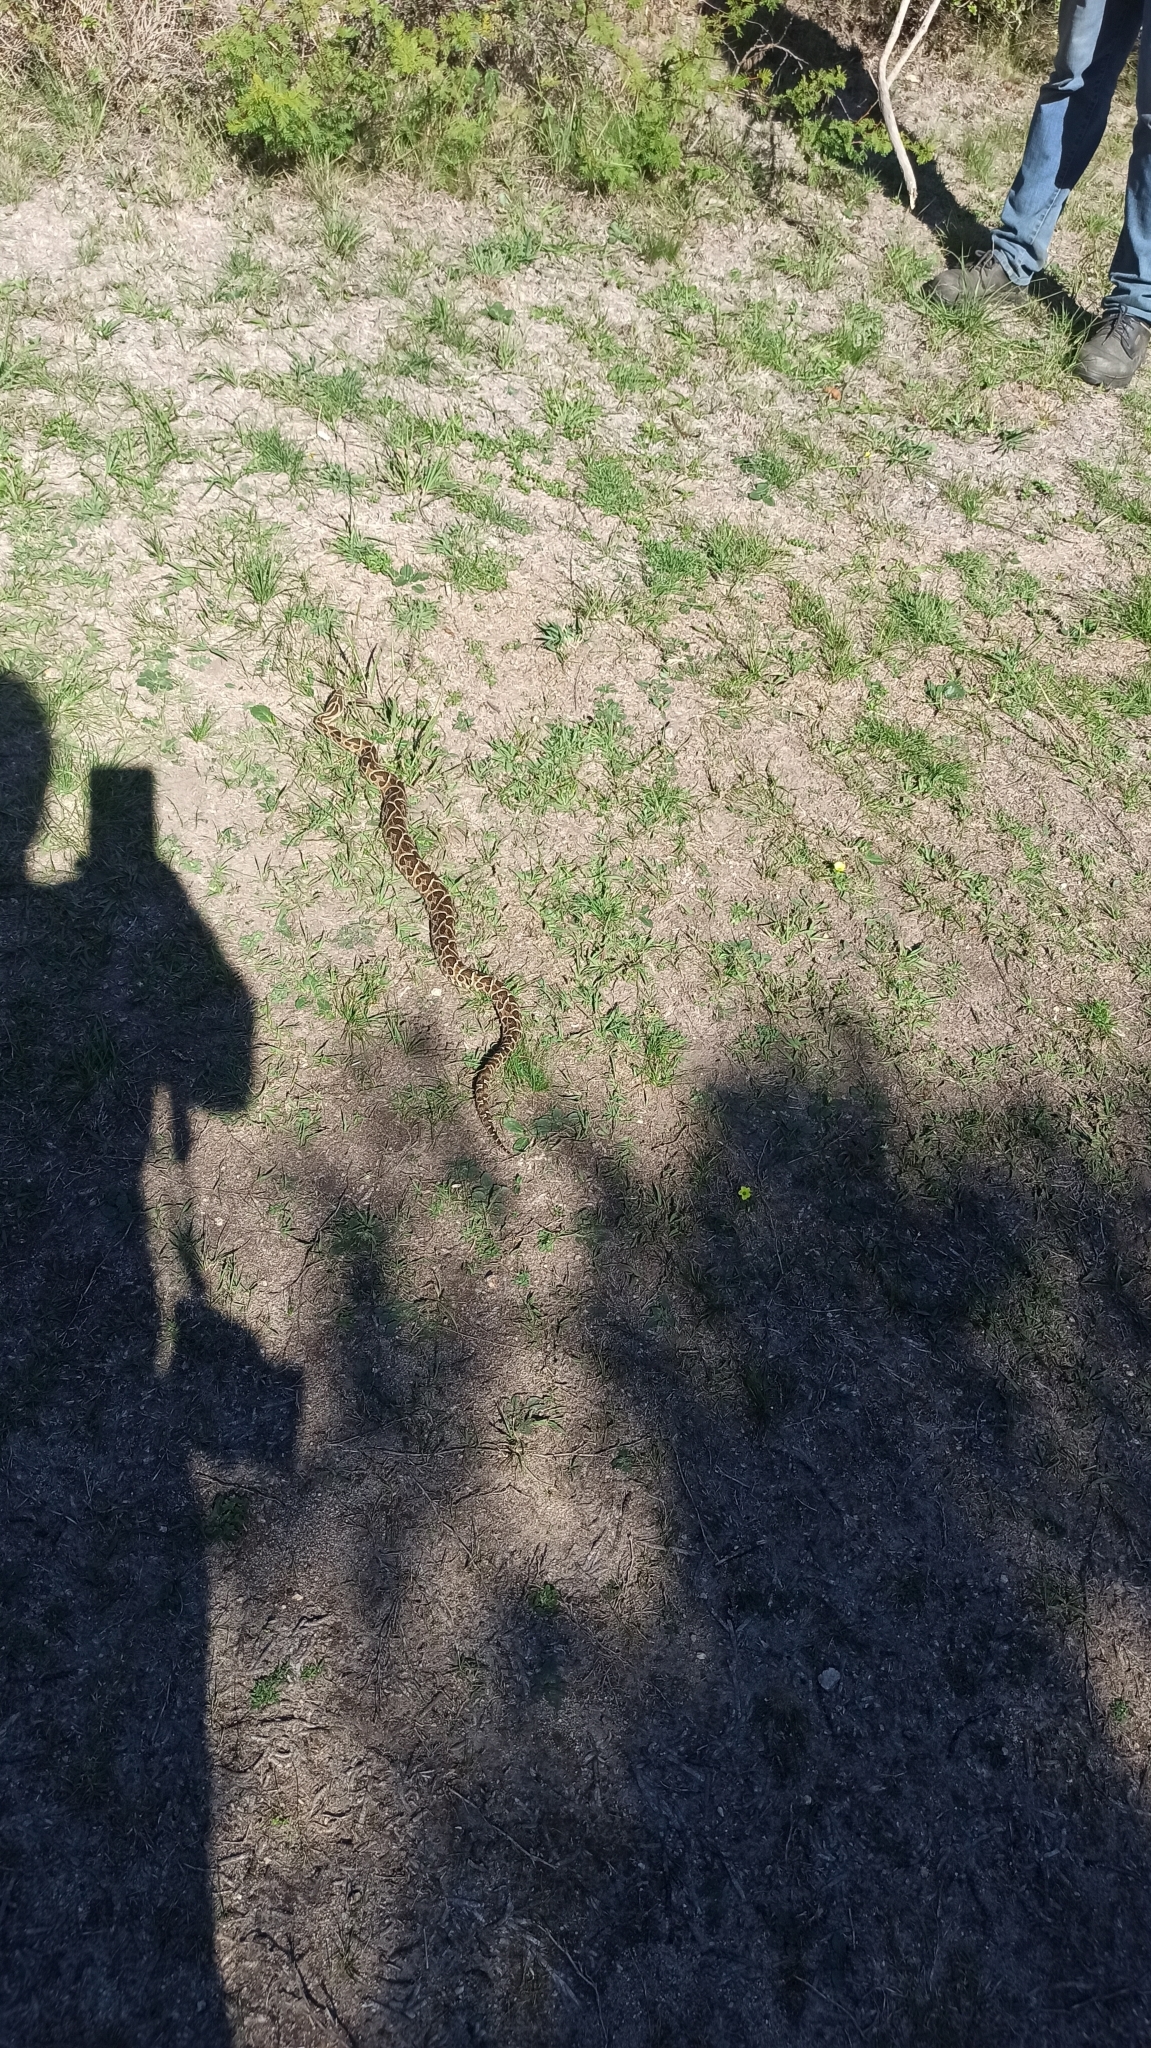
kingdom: Animalia
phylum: Chordata
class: Squamata
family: Viperidae
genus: Bothrops
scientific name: Bothrops alternatus
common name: Urutu
